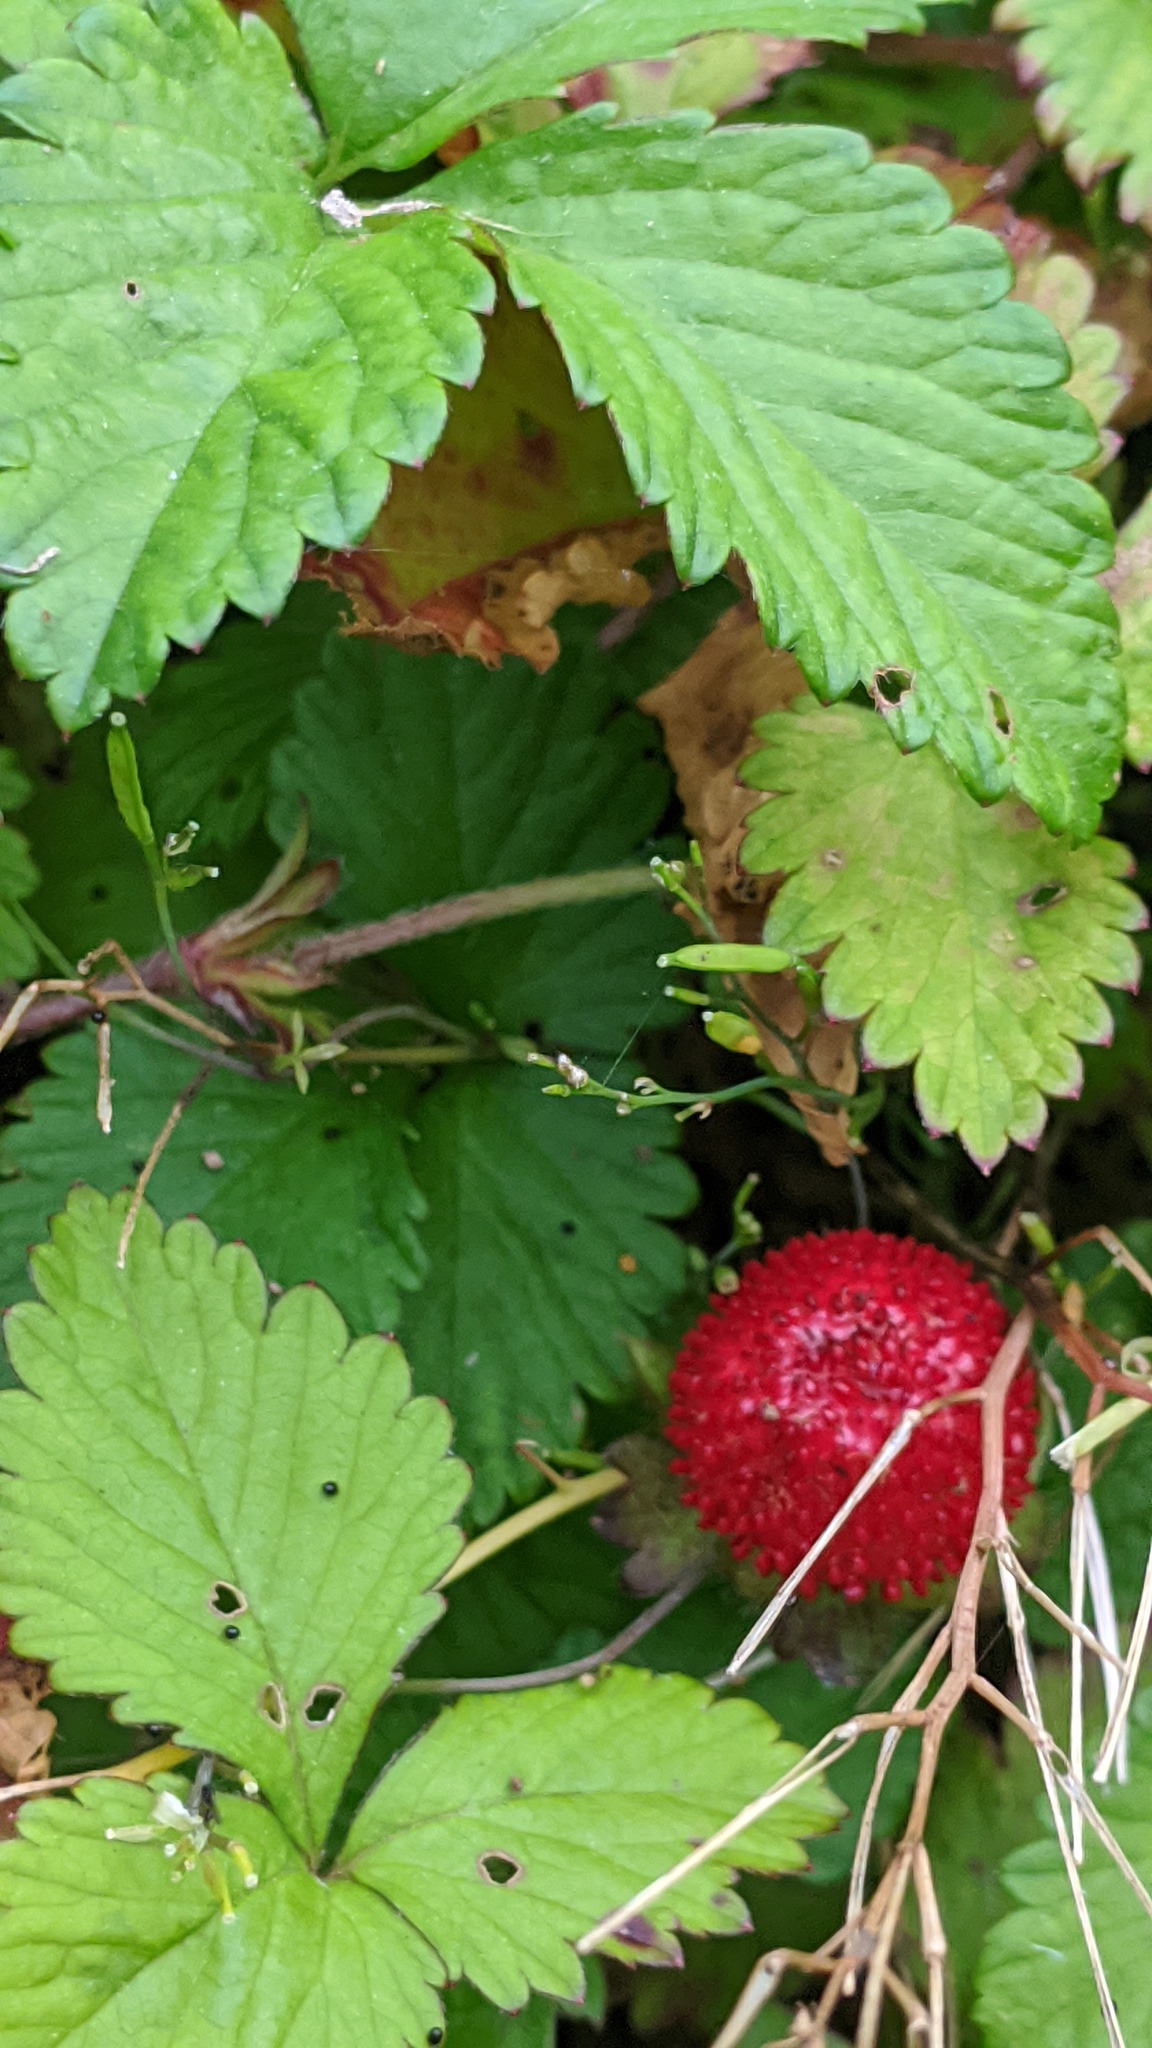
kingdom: Plantae
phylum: Tracheophyta
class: Magnoliopsida
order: Rosales
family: Rosaceae
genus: Potentilla
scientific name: Potentilla indica
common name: Yellow-flowered strawberry
